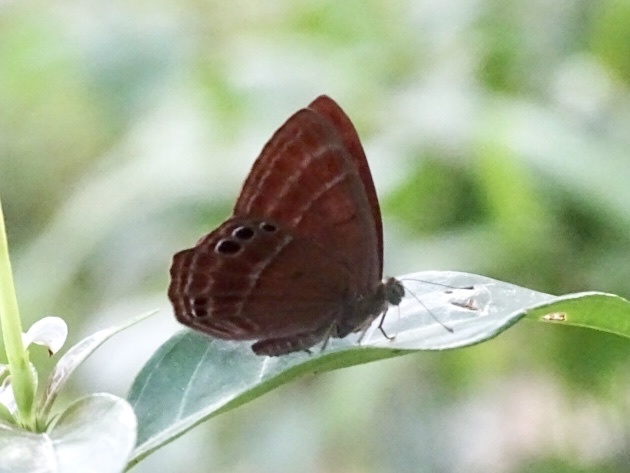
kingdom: Animalia
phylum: Arthropoda
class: Insecta
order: Lepidoptera
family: Lycaenidae
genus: Abisara
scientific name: Abisara echeria
